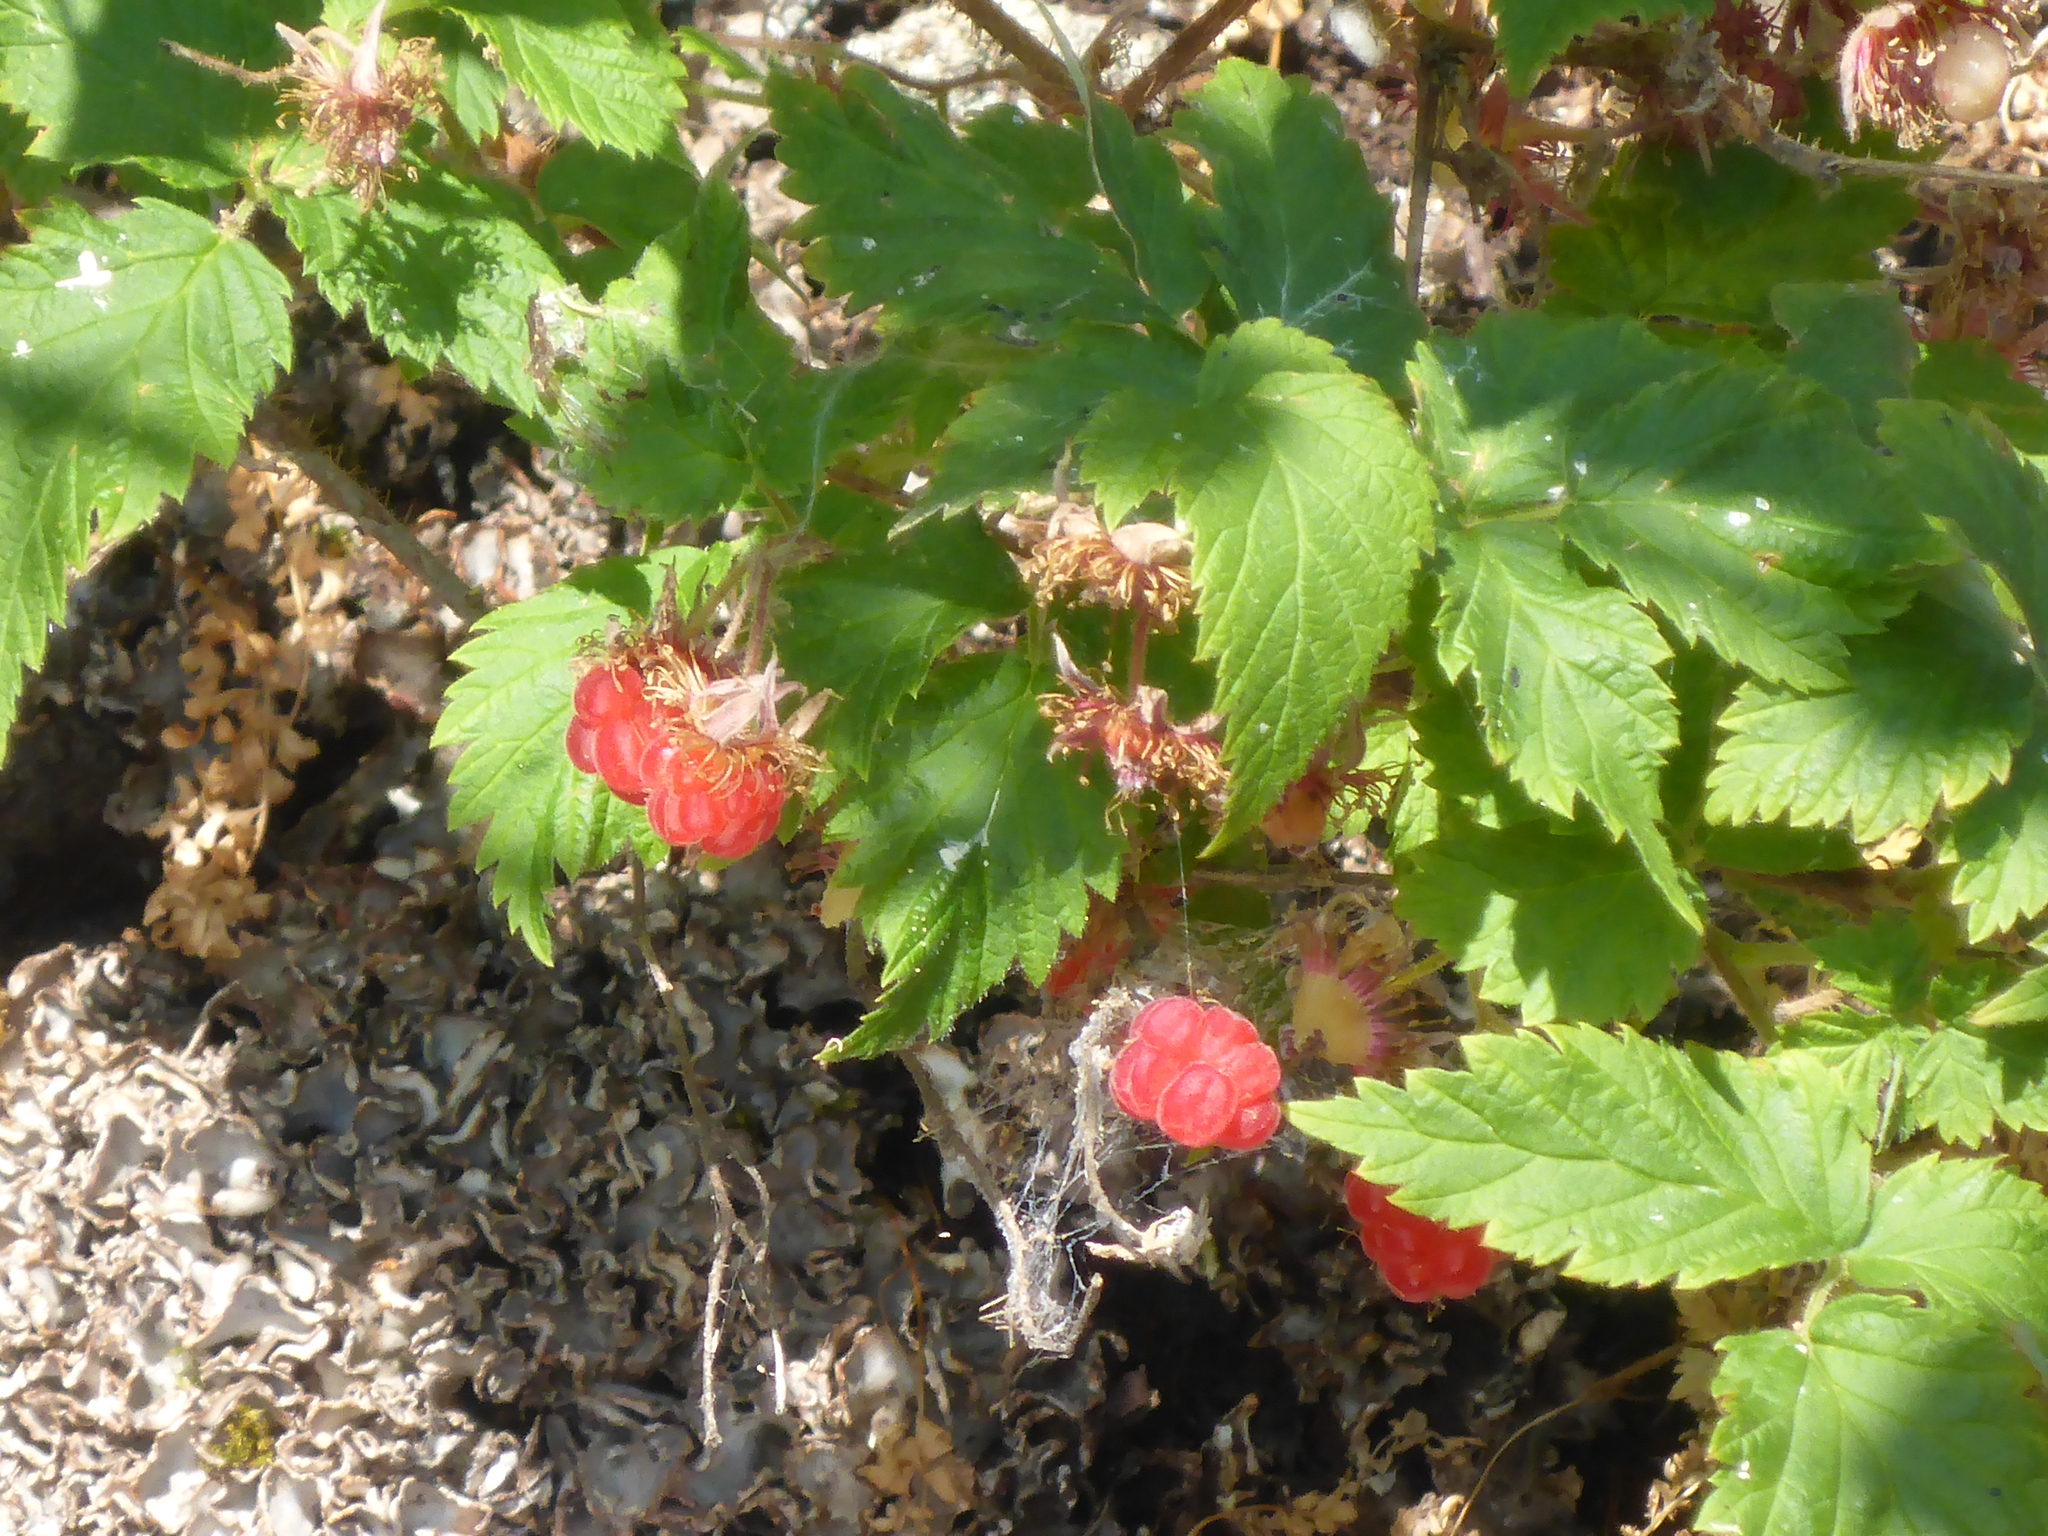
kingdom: Plantae
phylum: Tracheophyta
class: Magnoliopsida
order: Rosales
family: Rosaceae
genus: Rubus
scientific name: Rubus idaeus
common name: Raspberry
